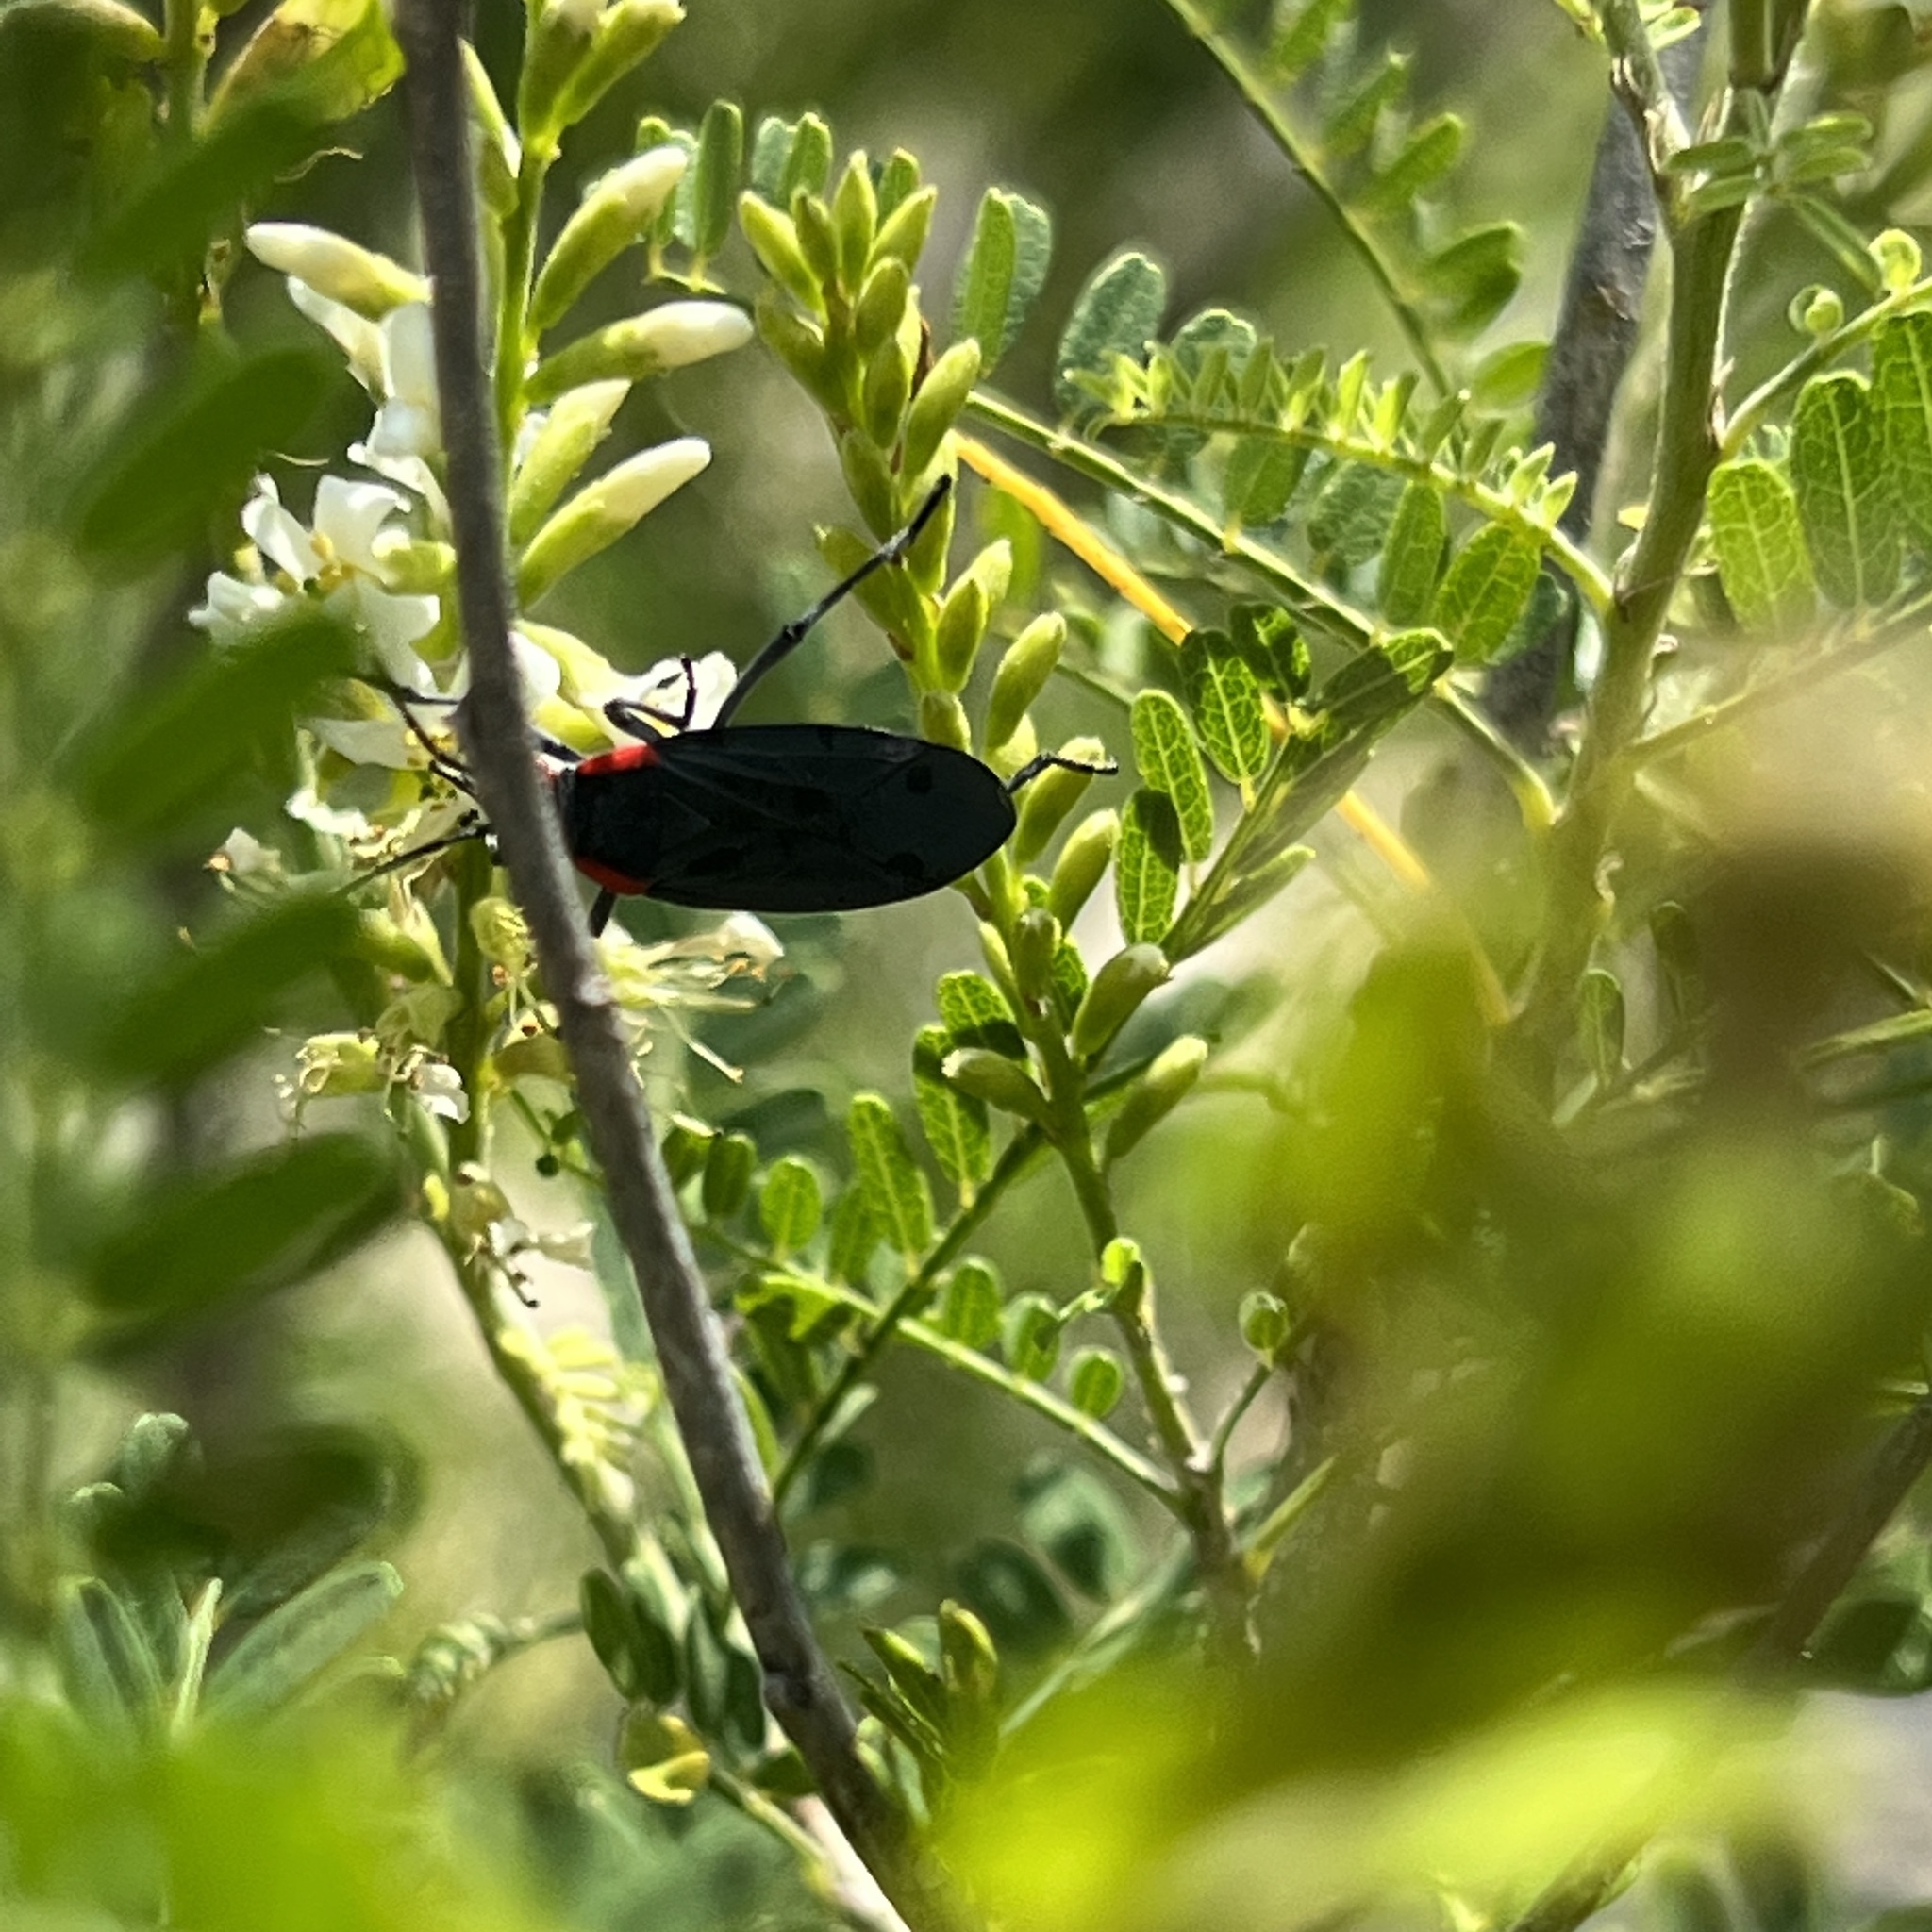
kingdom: Animalia
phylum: Arthropoda
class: Insecta
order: Hemiptera
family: Rhopalidae
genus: Jadera
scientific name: Jadera haematoloma
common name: Red-shouldered bug
